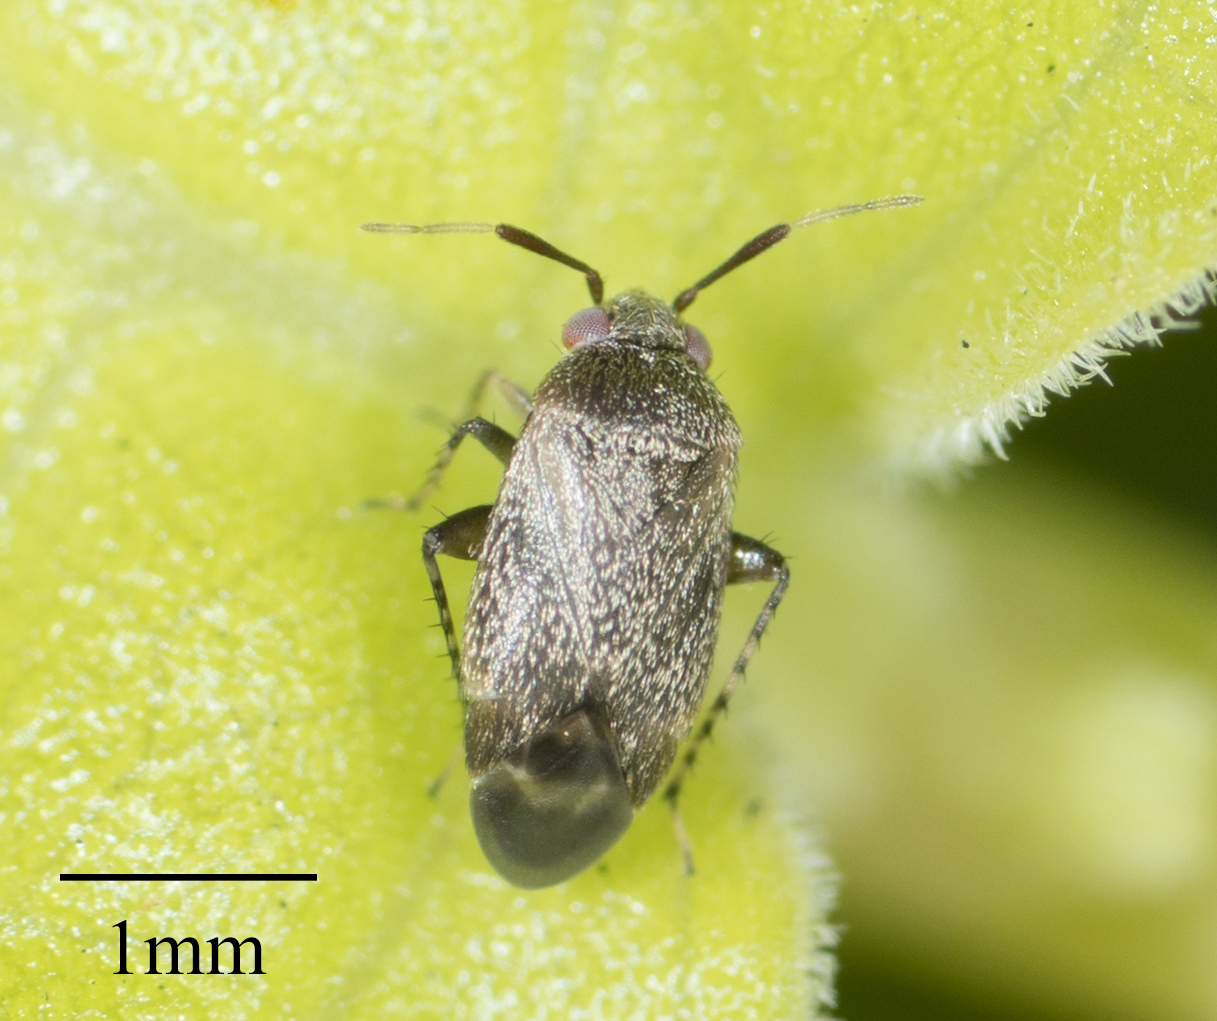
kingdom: Animalia
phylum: Arthropoda
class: Insecta
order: Hemiptera
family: Miridae
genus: Rhinacloa
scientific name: Rhinacloa forticornis
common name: Brown cotton mirid
